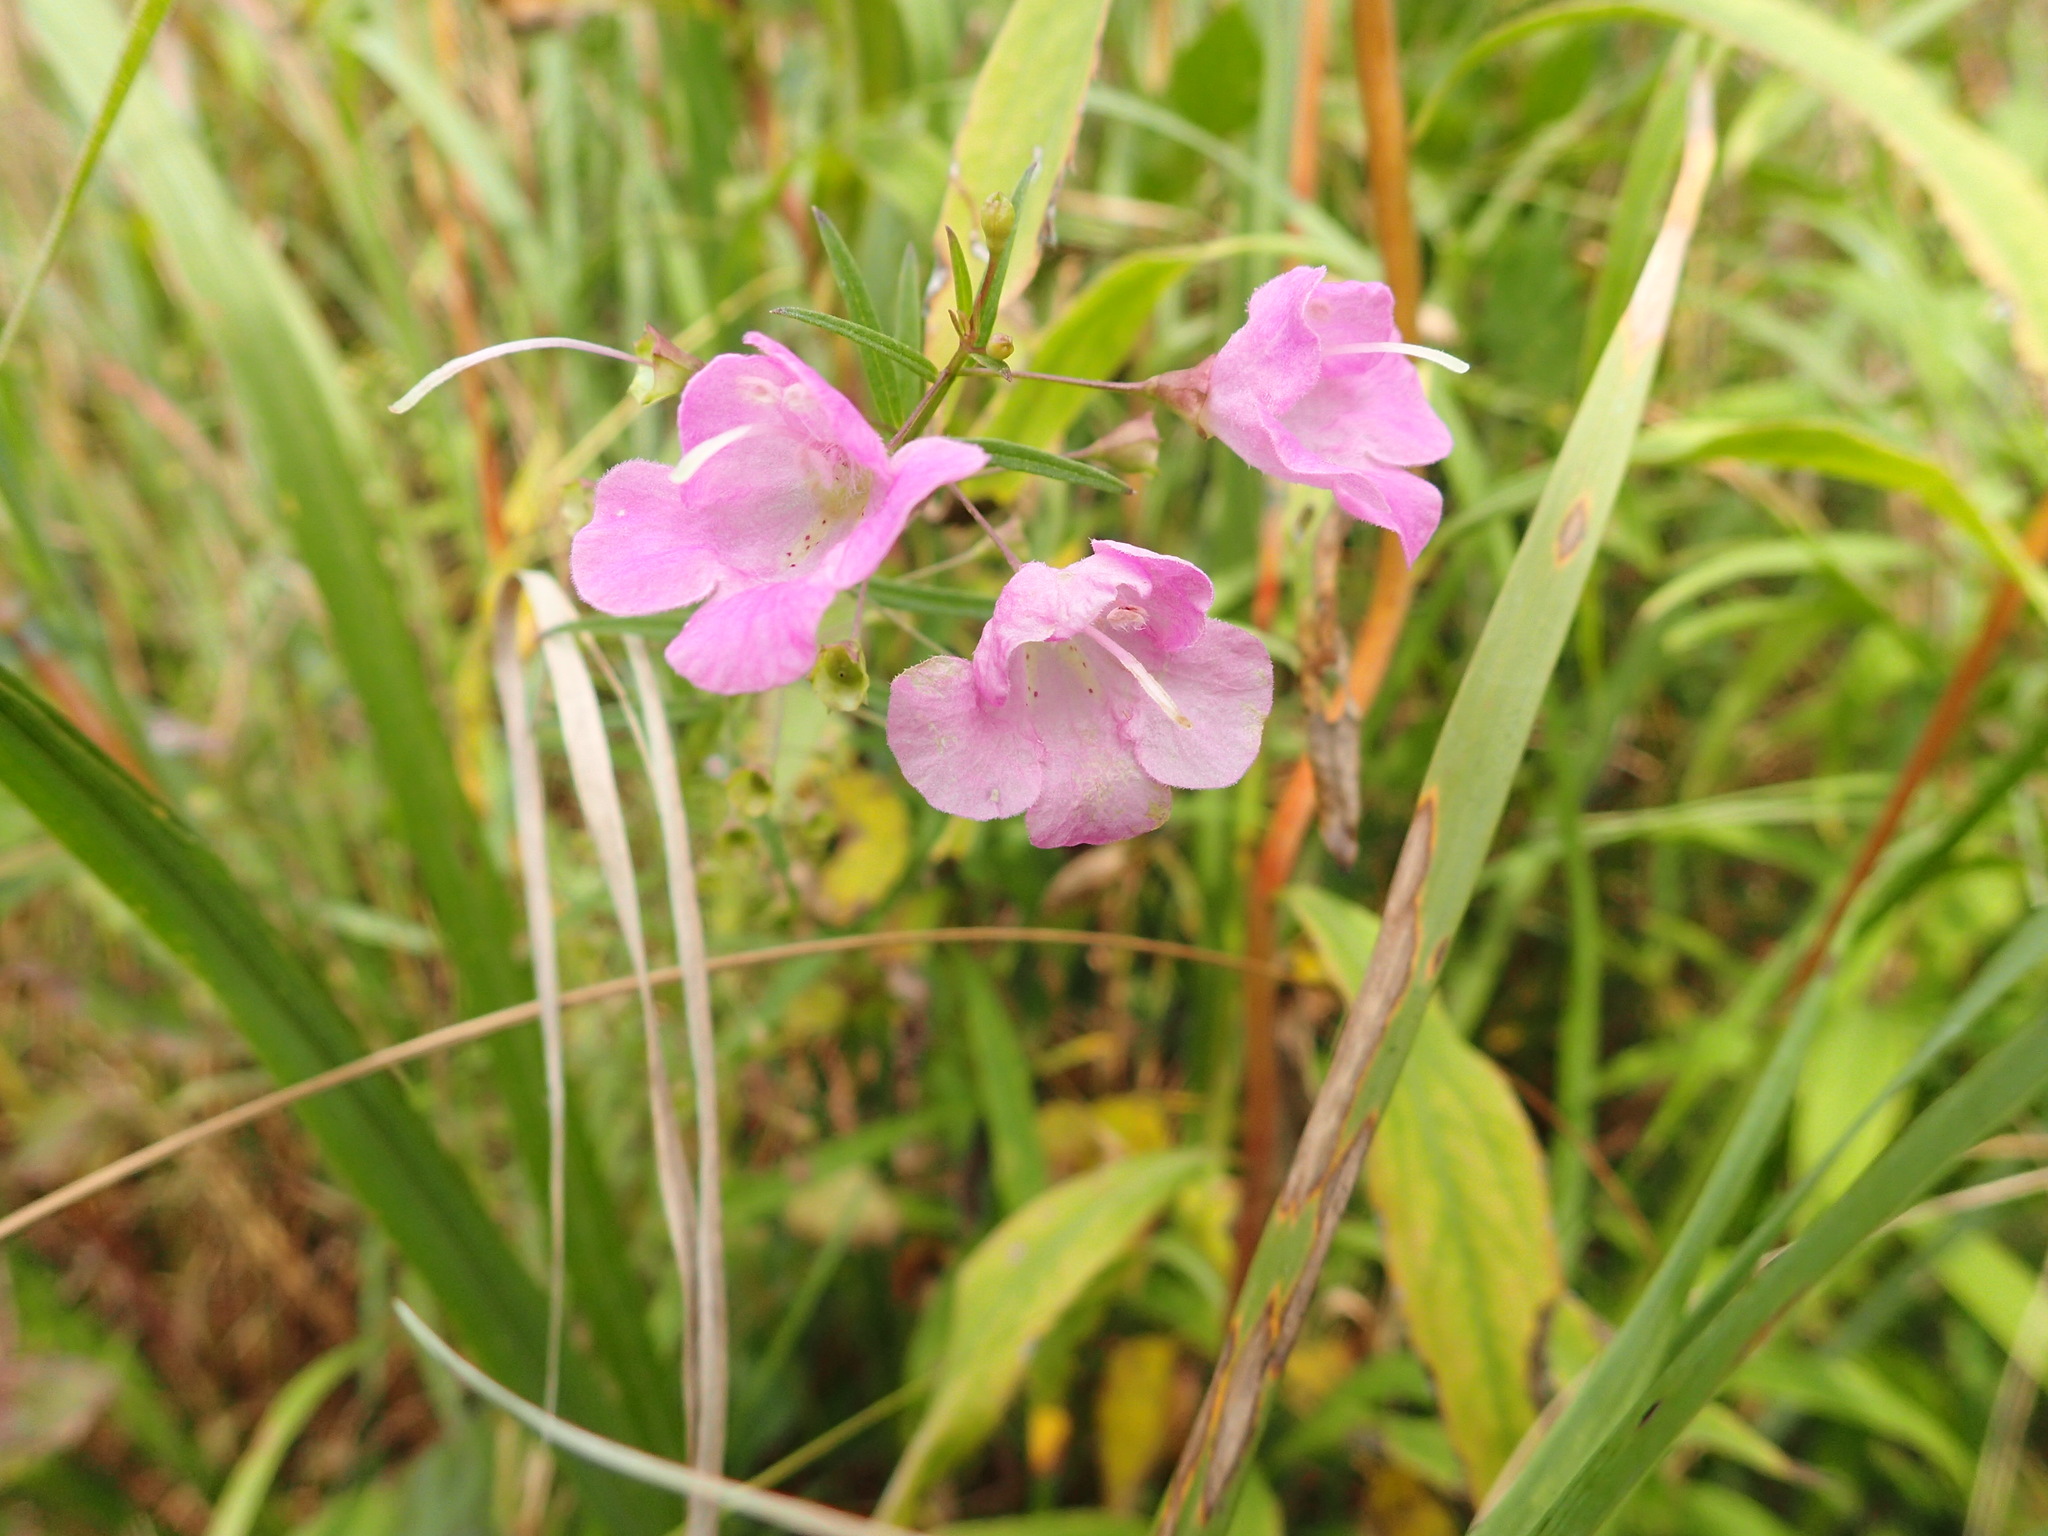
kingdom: Plantae
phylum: Tracheophyta
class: Magnoliopsida
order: Lamiales
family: Orobanchaceae
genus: Agalinis
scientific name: Agalinis tenuifolia
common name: Slender agalinis
